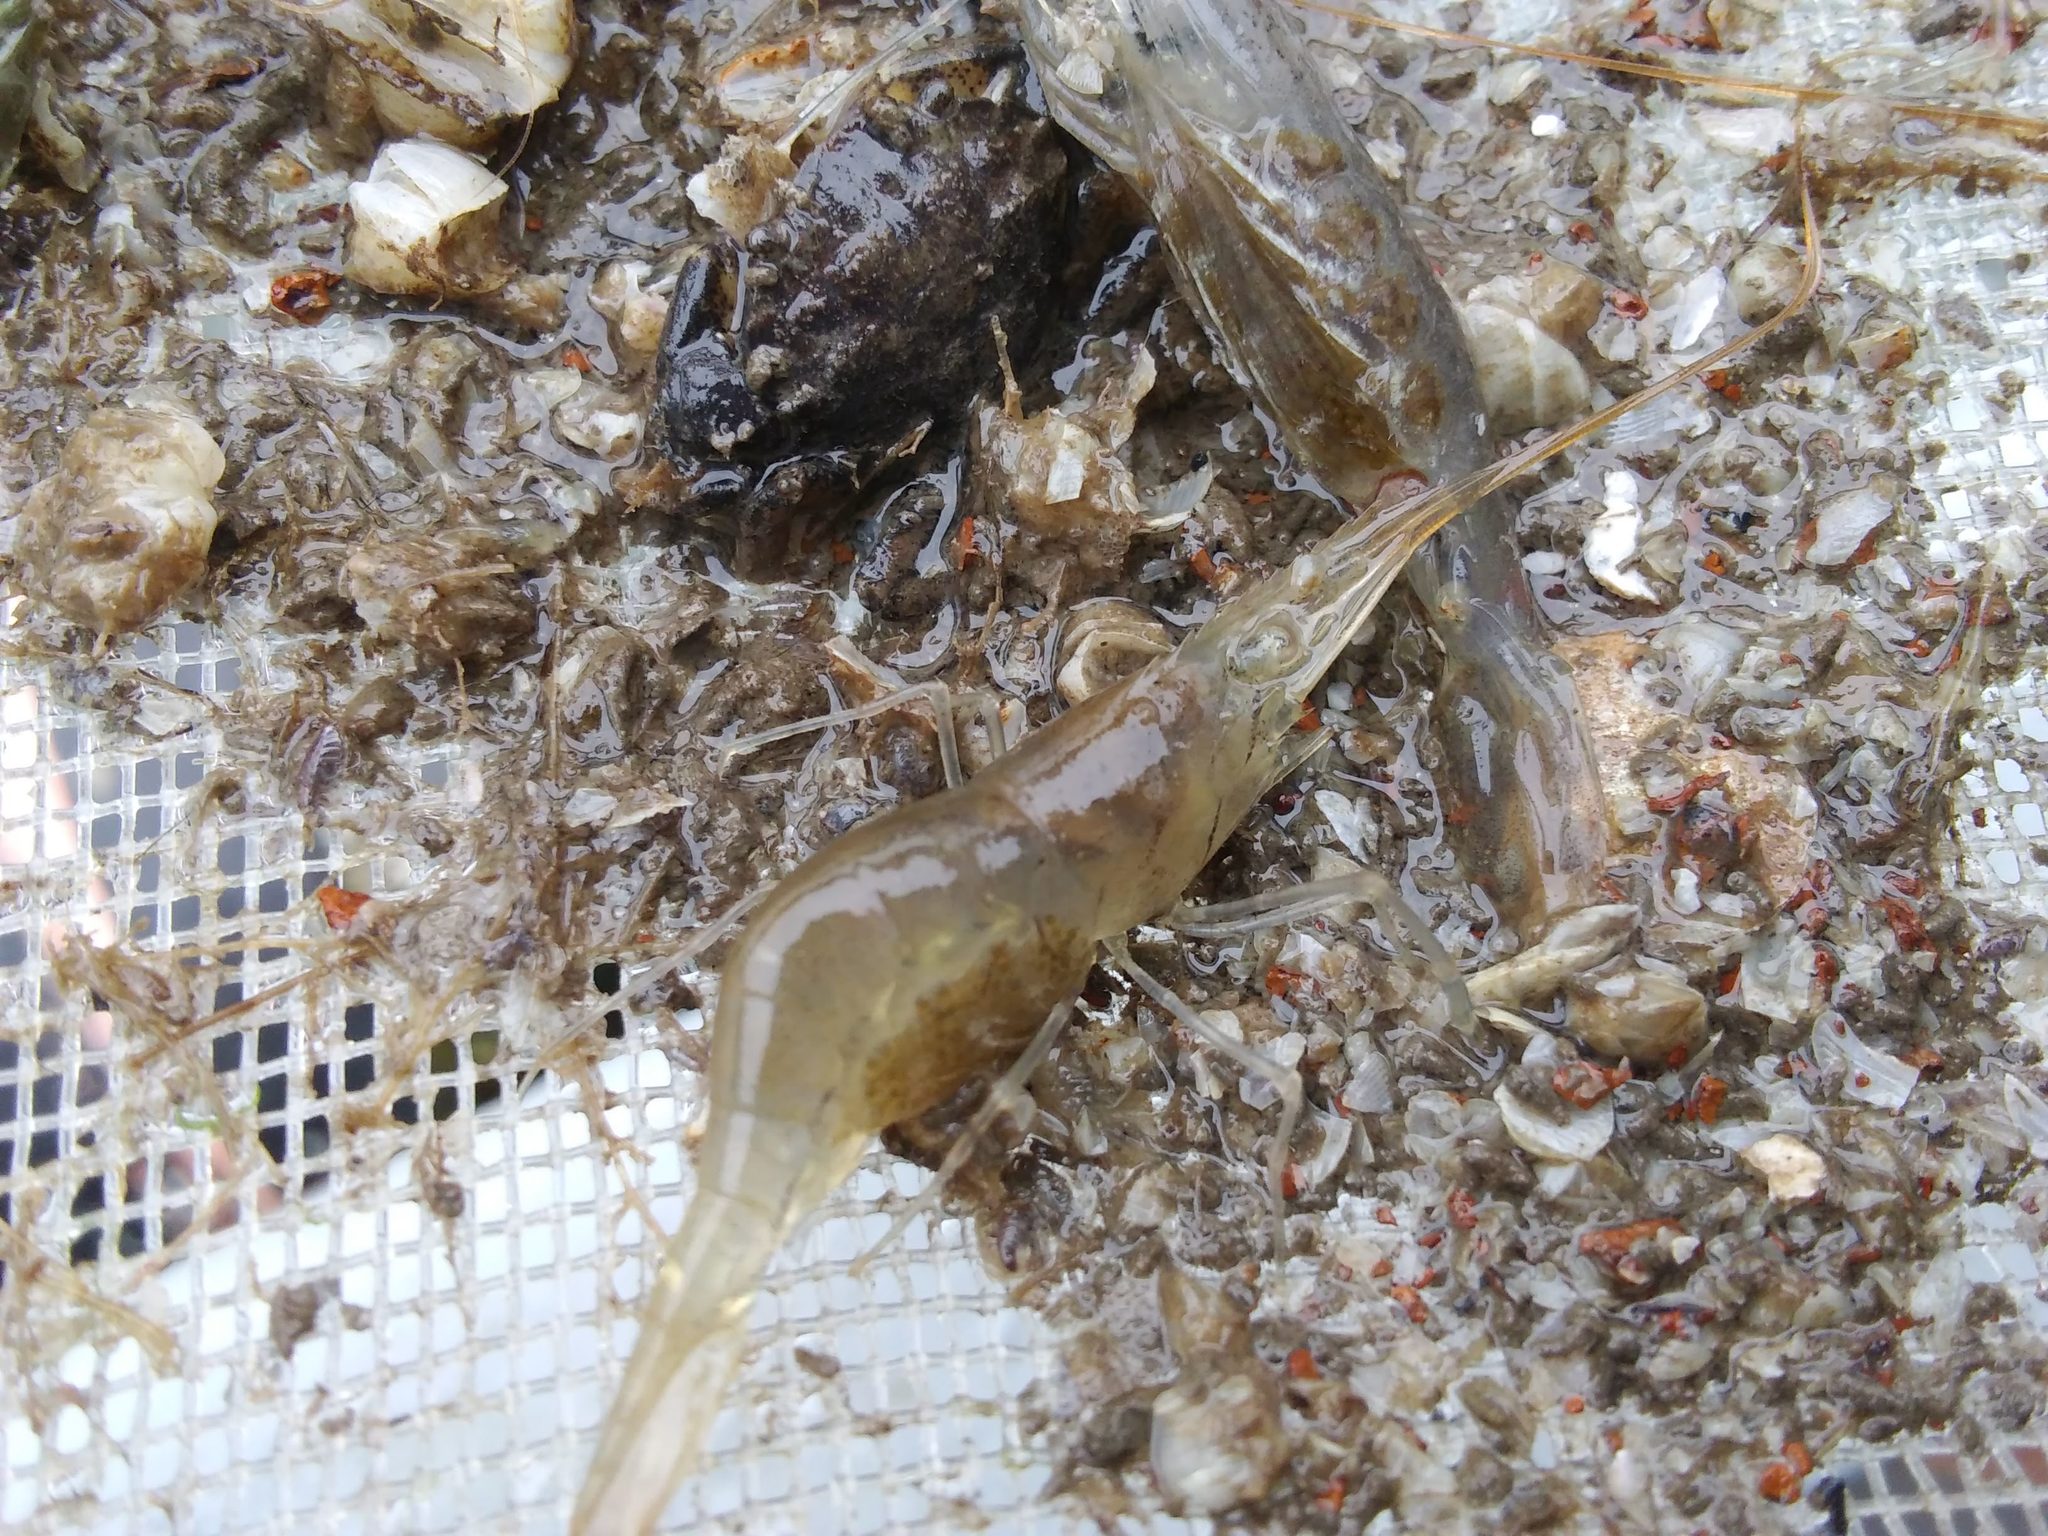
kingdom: Animalia
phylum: Arthropoda
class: Malacostraca
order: Decapoda
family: Palaemonidae
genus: Palaemon
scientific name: Palaemon vulgaris
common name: Common american prawn
